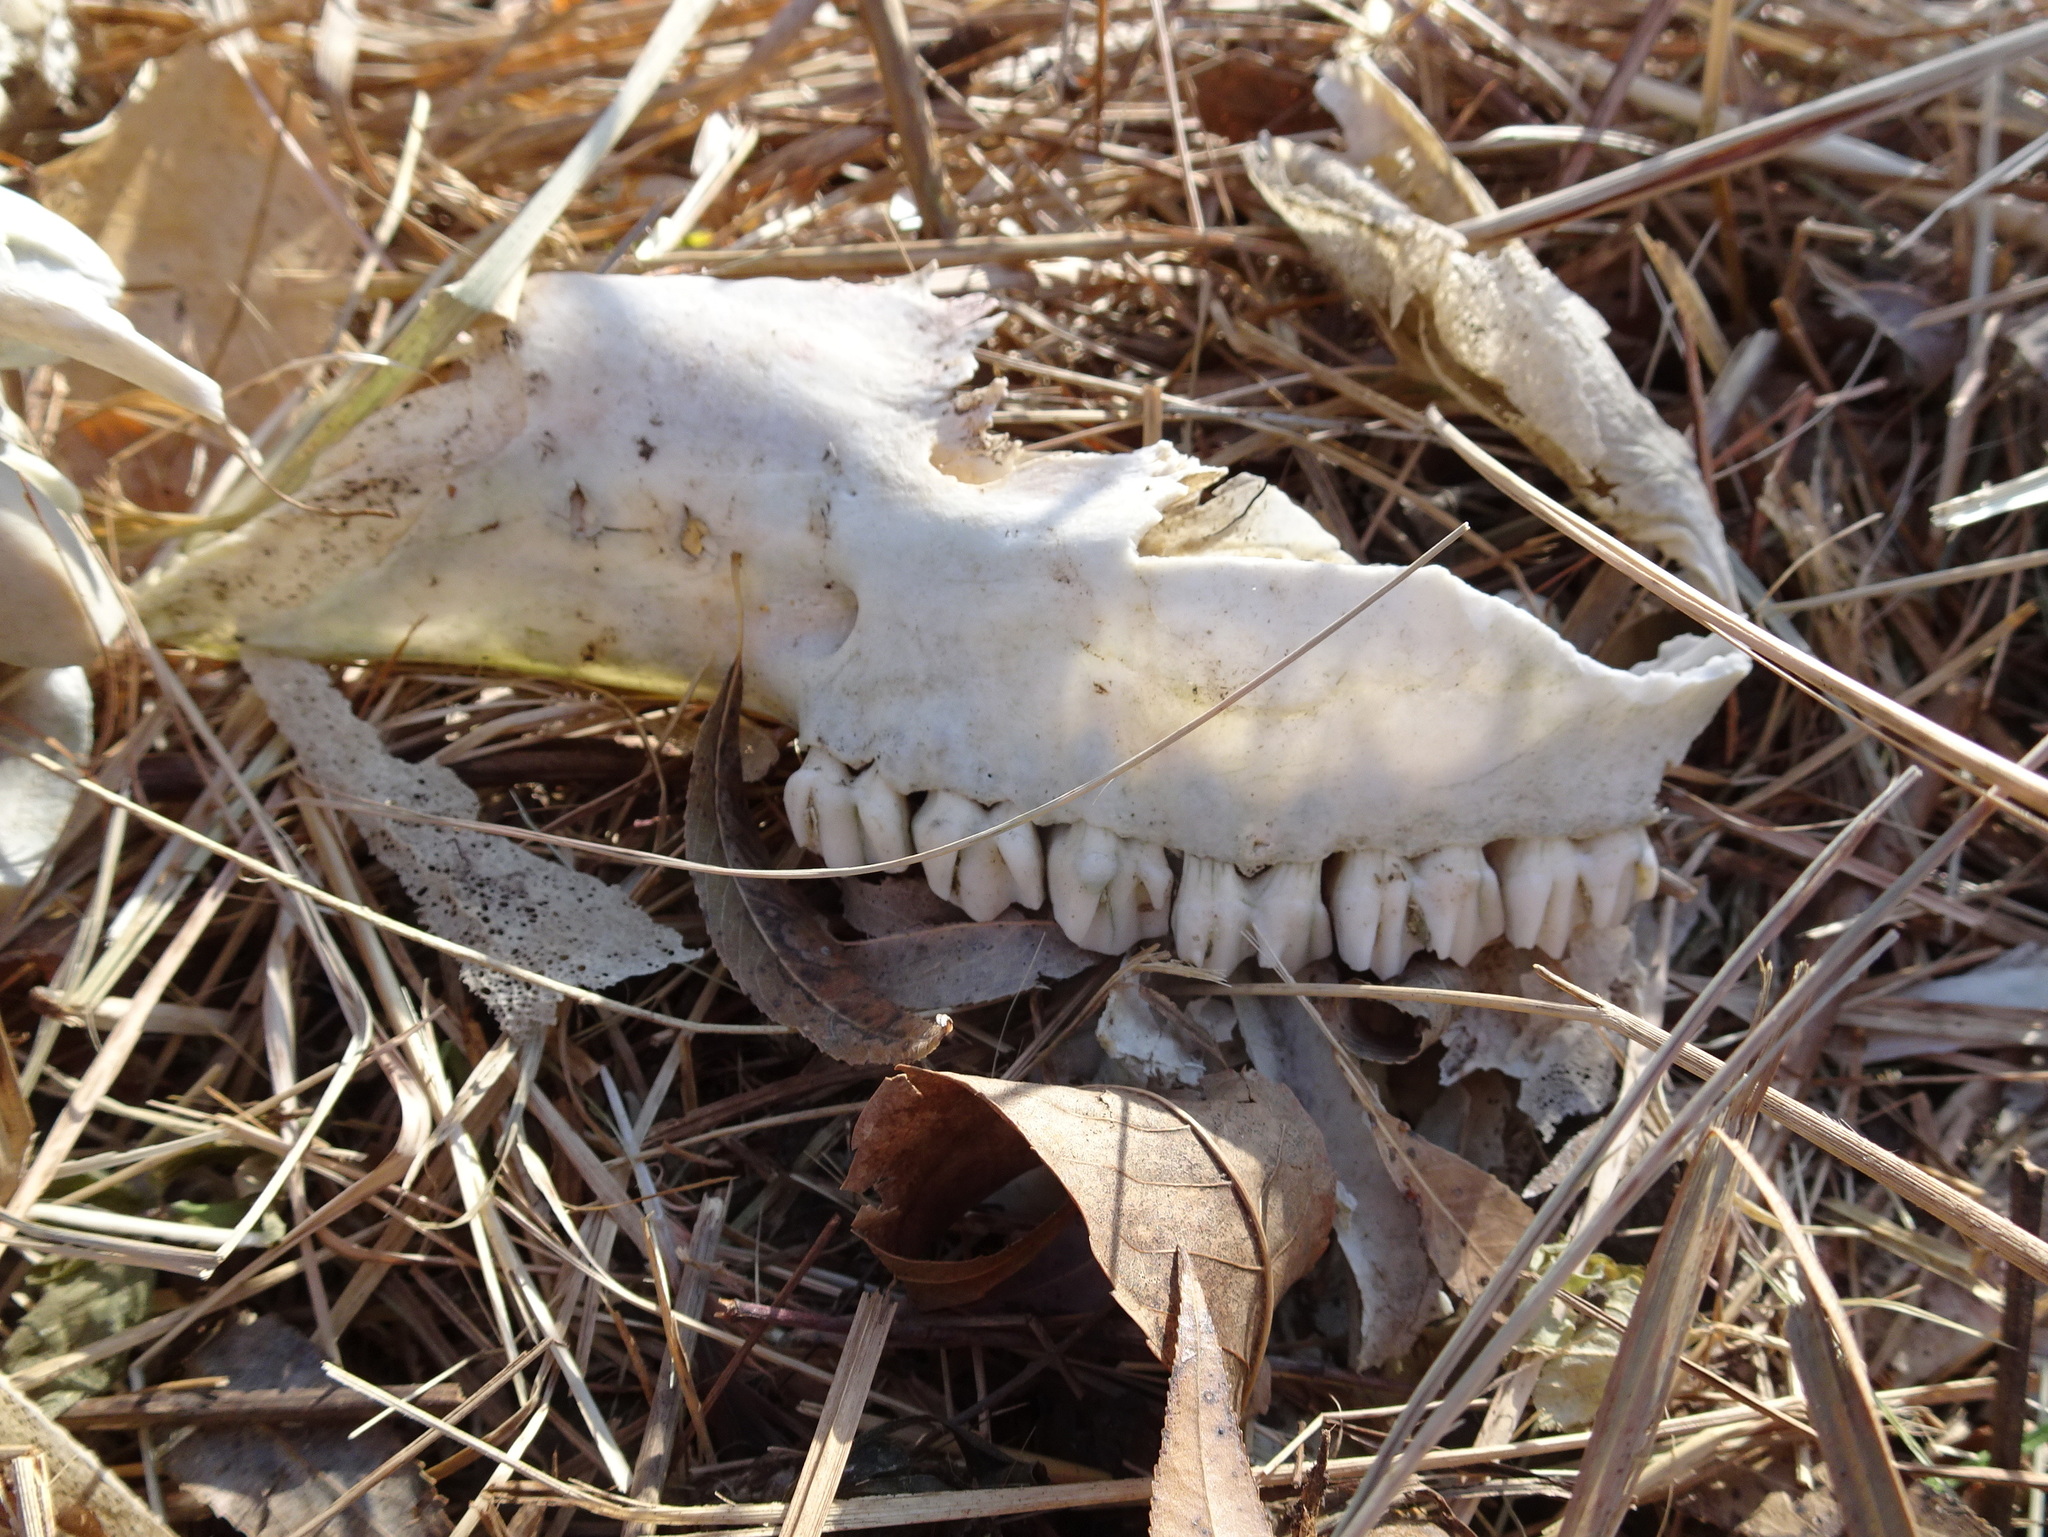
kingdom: Animalia
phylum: Chordata
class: Mammalia
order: Artiodactyla
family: Cervidae
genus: Odocoileus
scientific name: Odocoileus virginianus
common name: White-tailed deer
